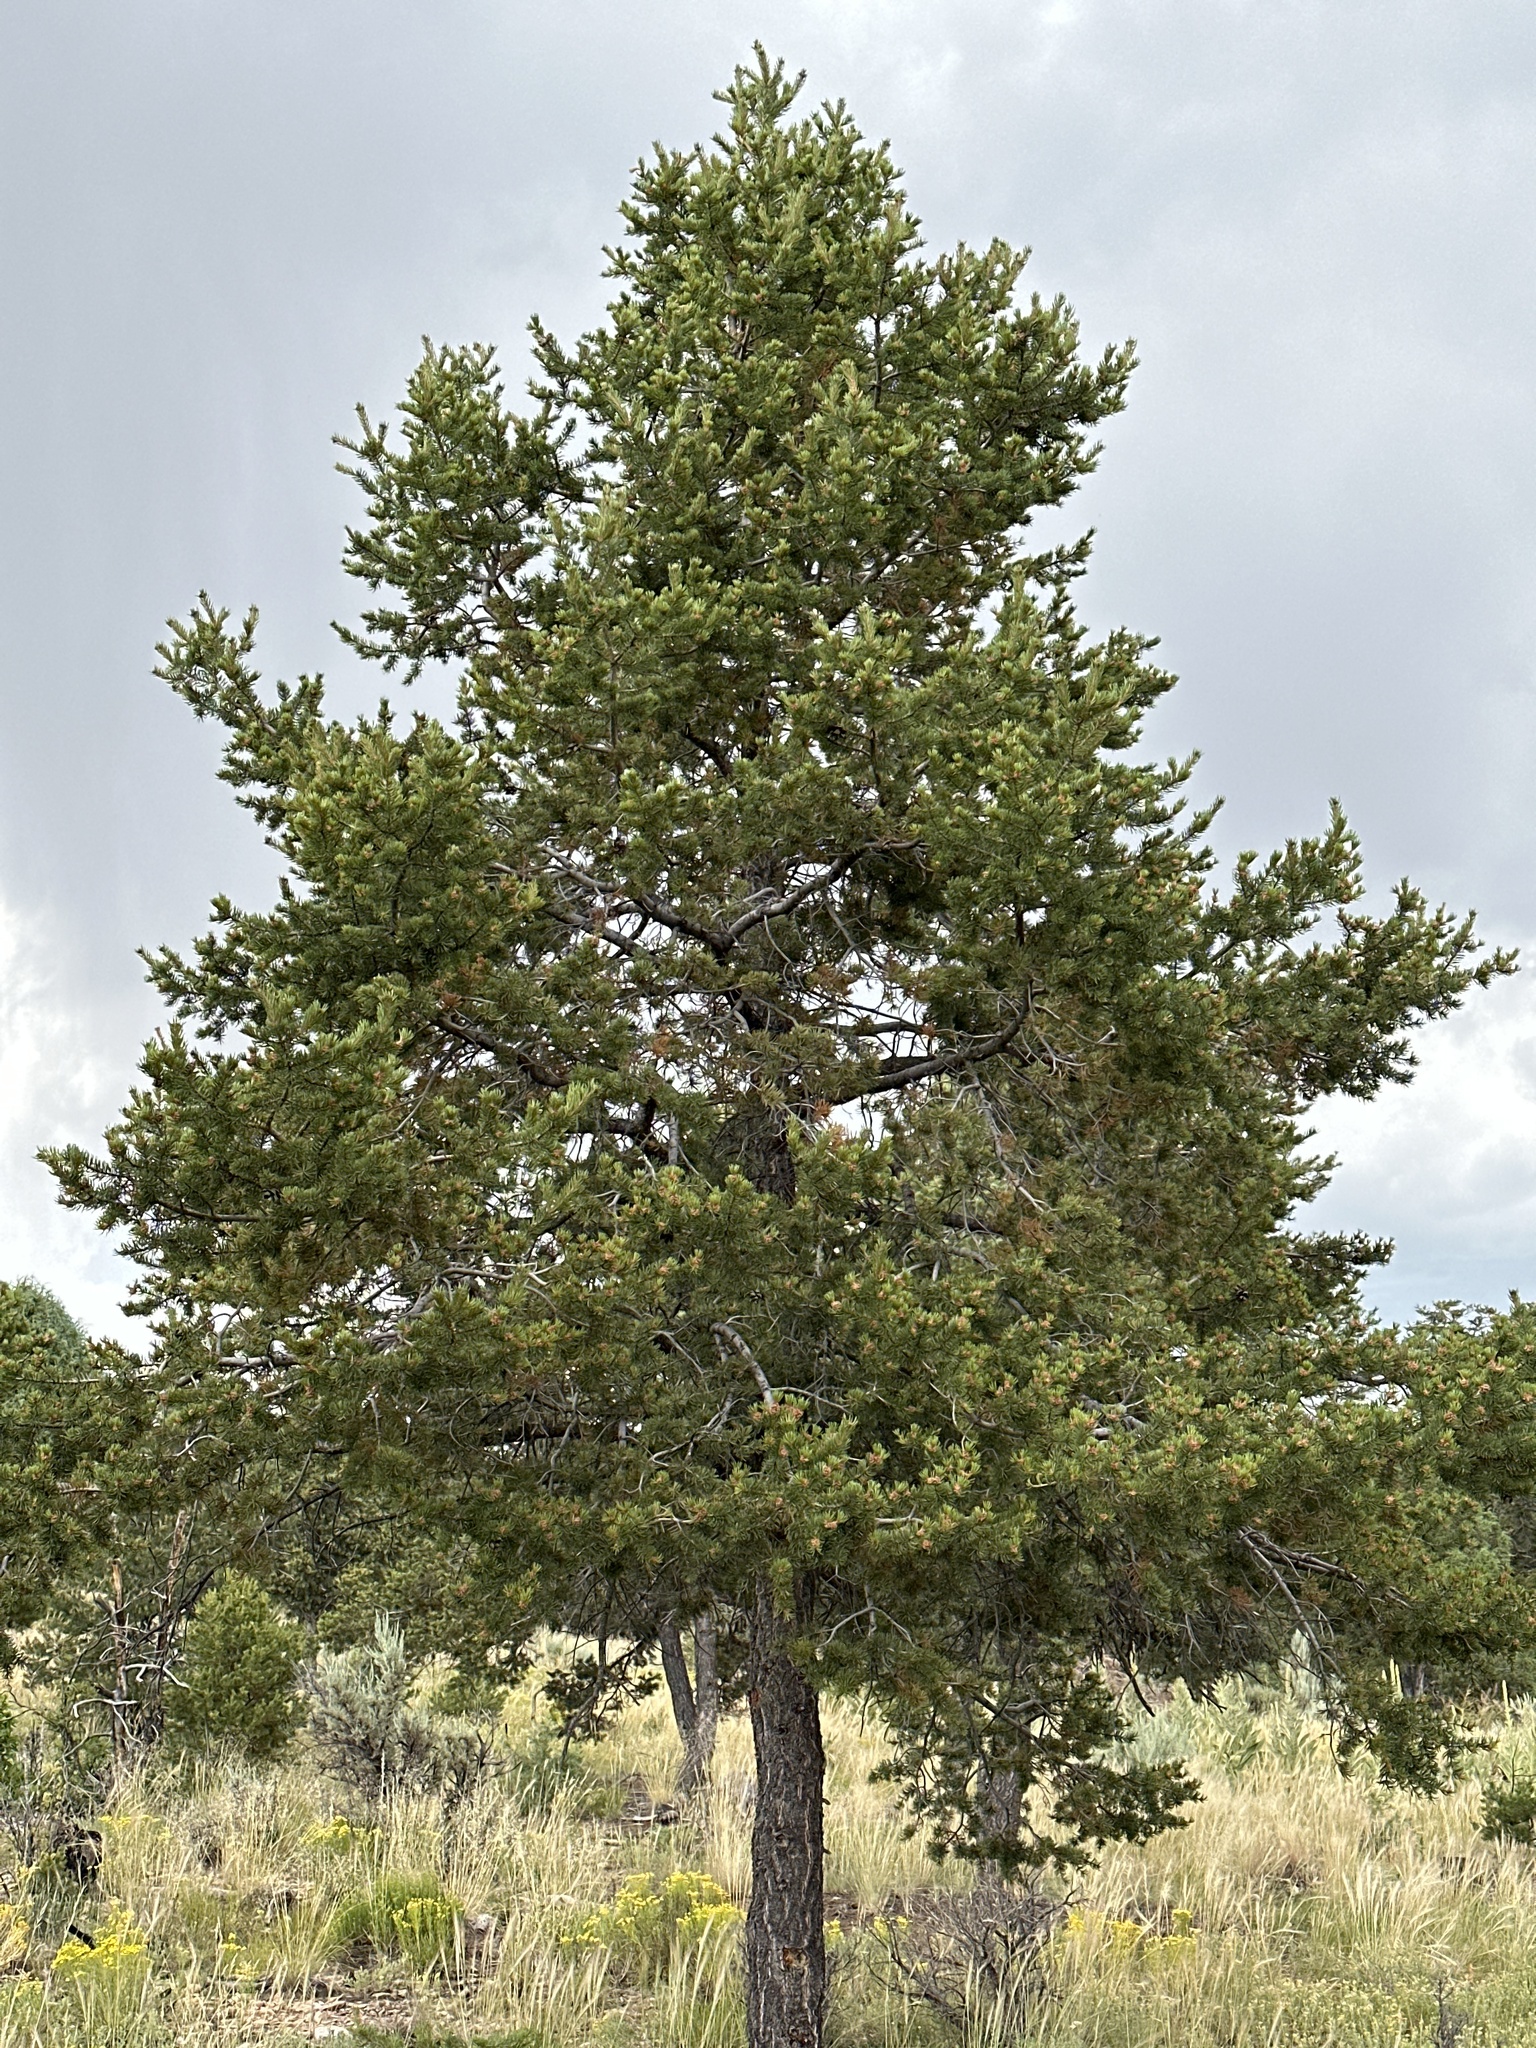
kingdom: Plantae
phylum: Tracheophyta
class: Pinopsida
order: Pinales
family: Pinaceae
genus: Pinus
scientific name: Pinus edulis
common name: Colorado pinyon
